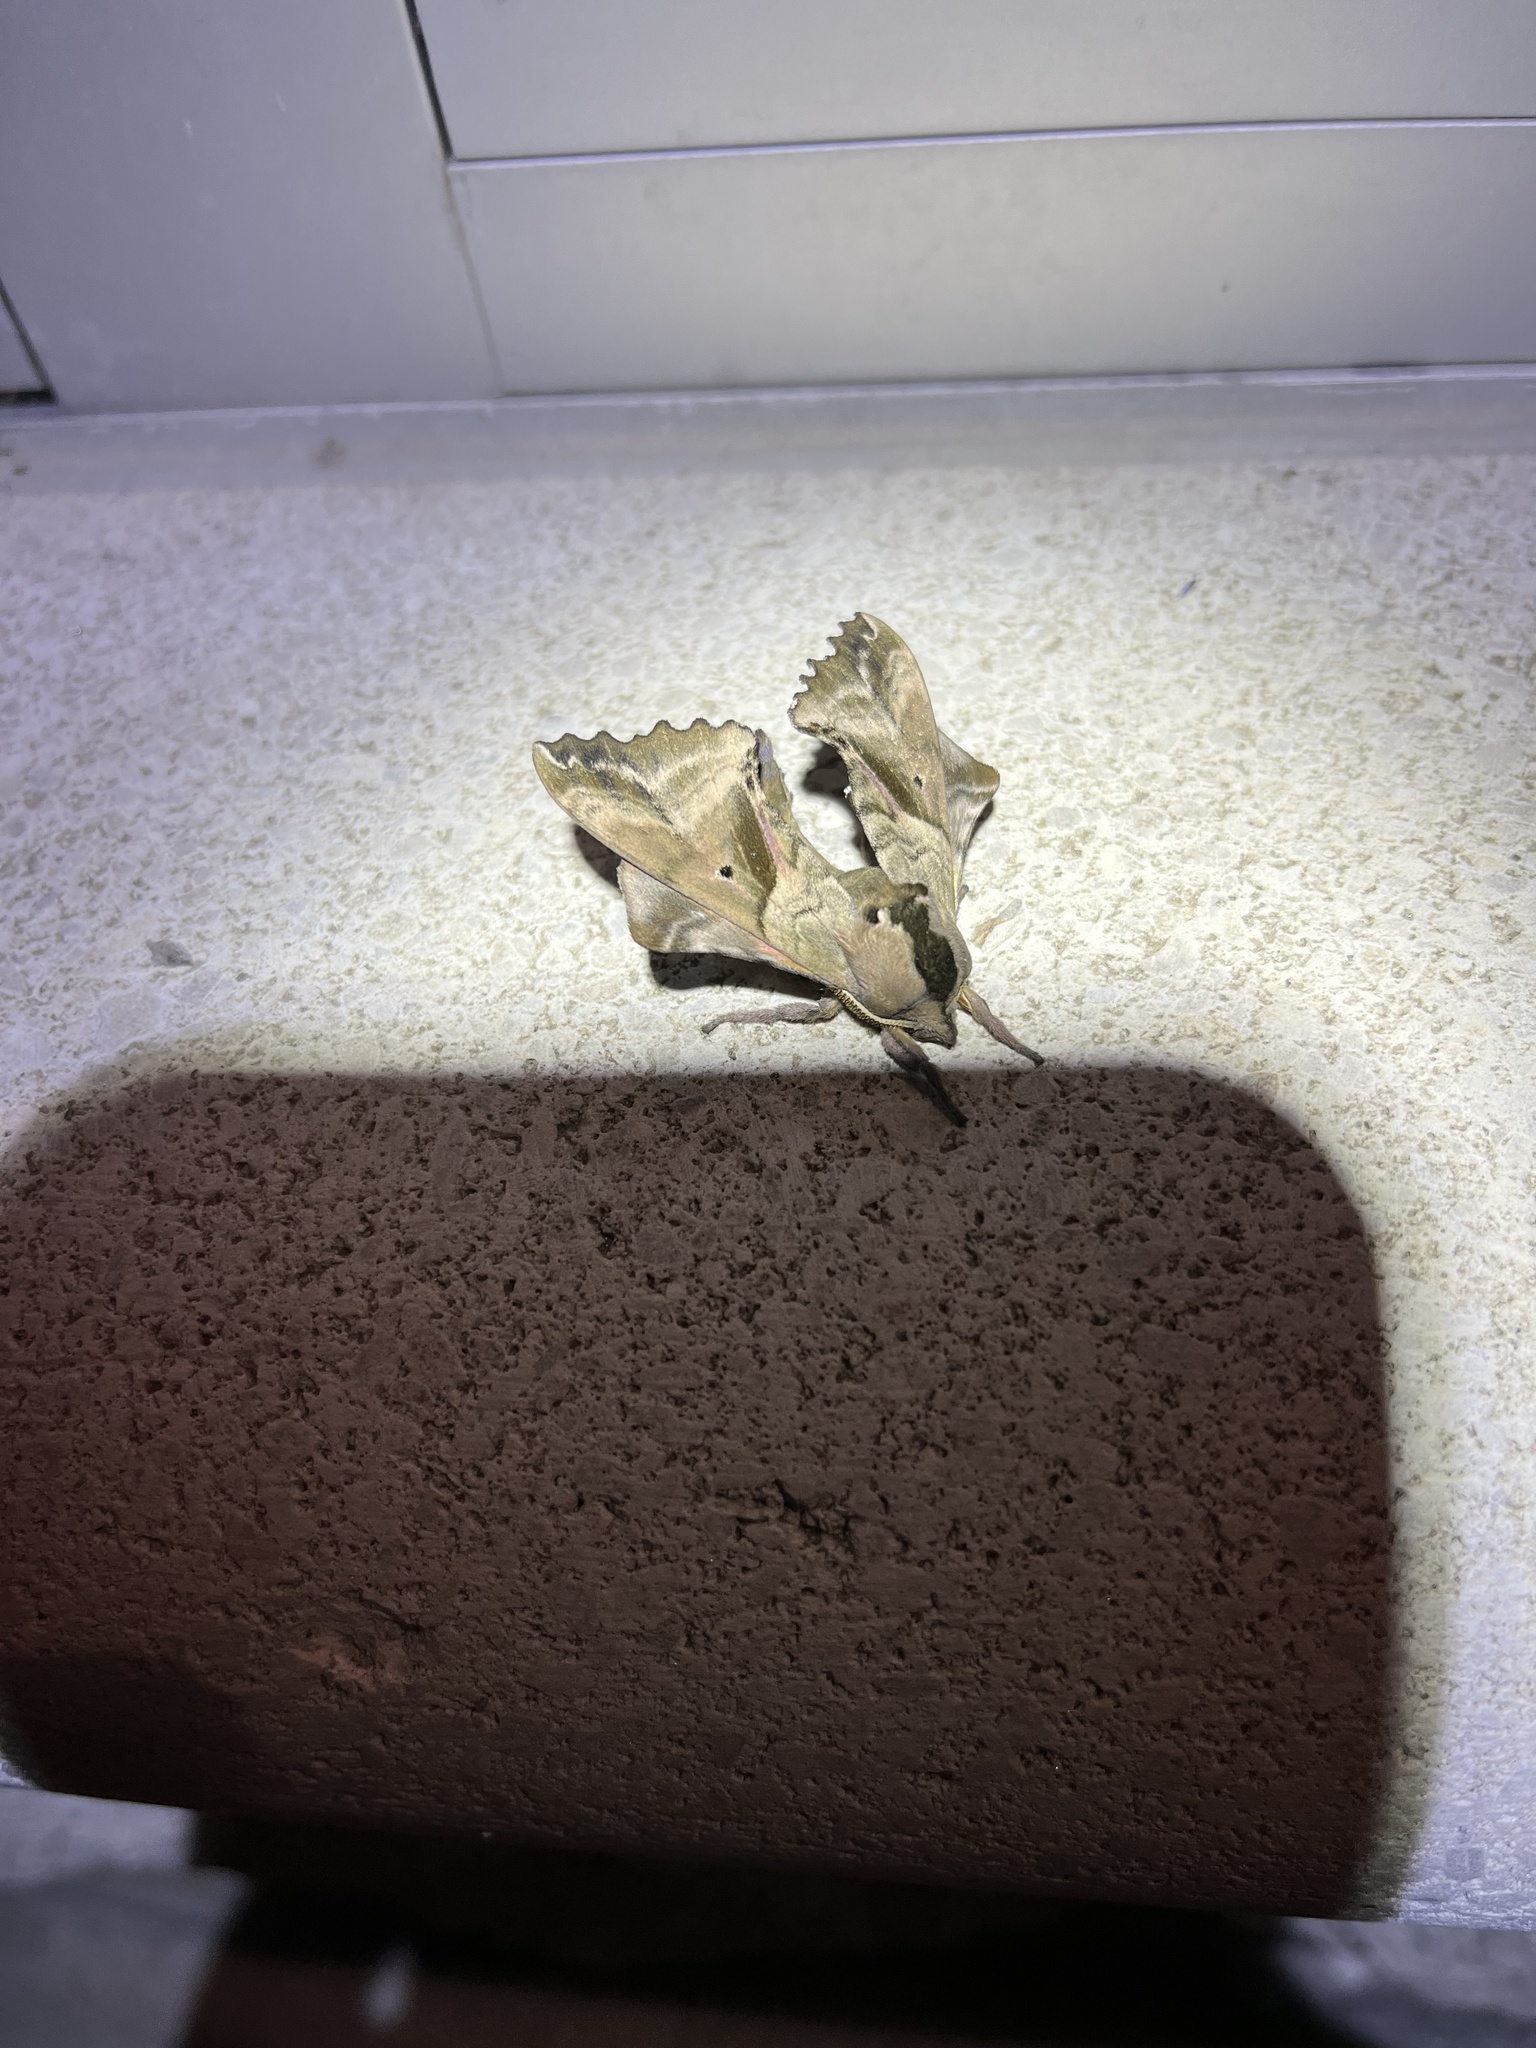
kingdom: Animalia
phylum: Arthropoda
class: Insecta
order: Lepidoptera
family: Sphingidae
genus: Paonias
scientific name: Paonias excaecata
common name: Blind-eyed sphinx
